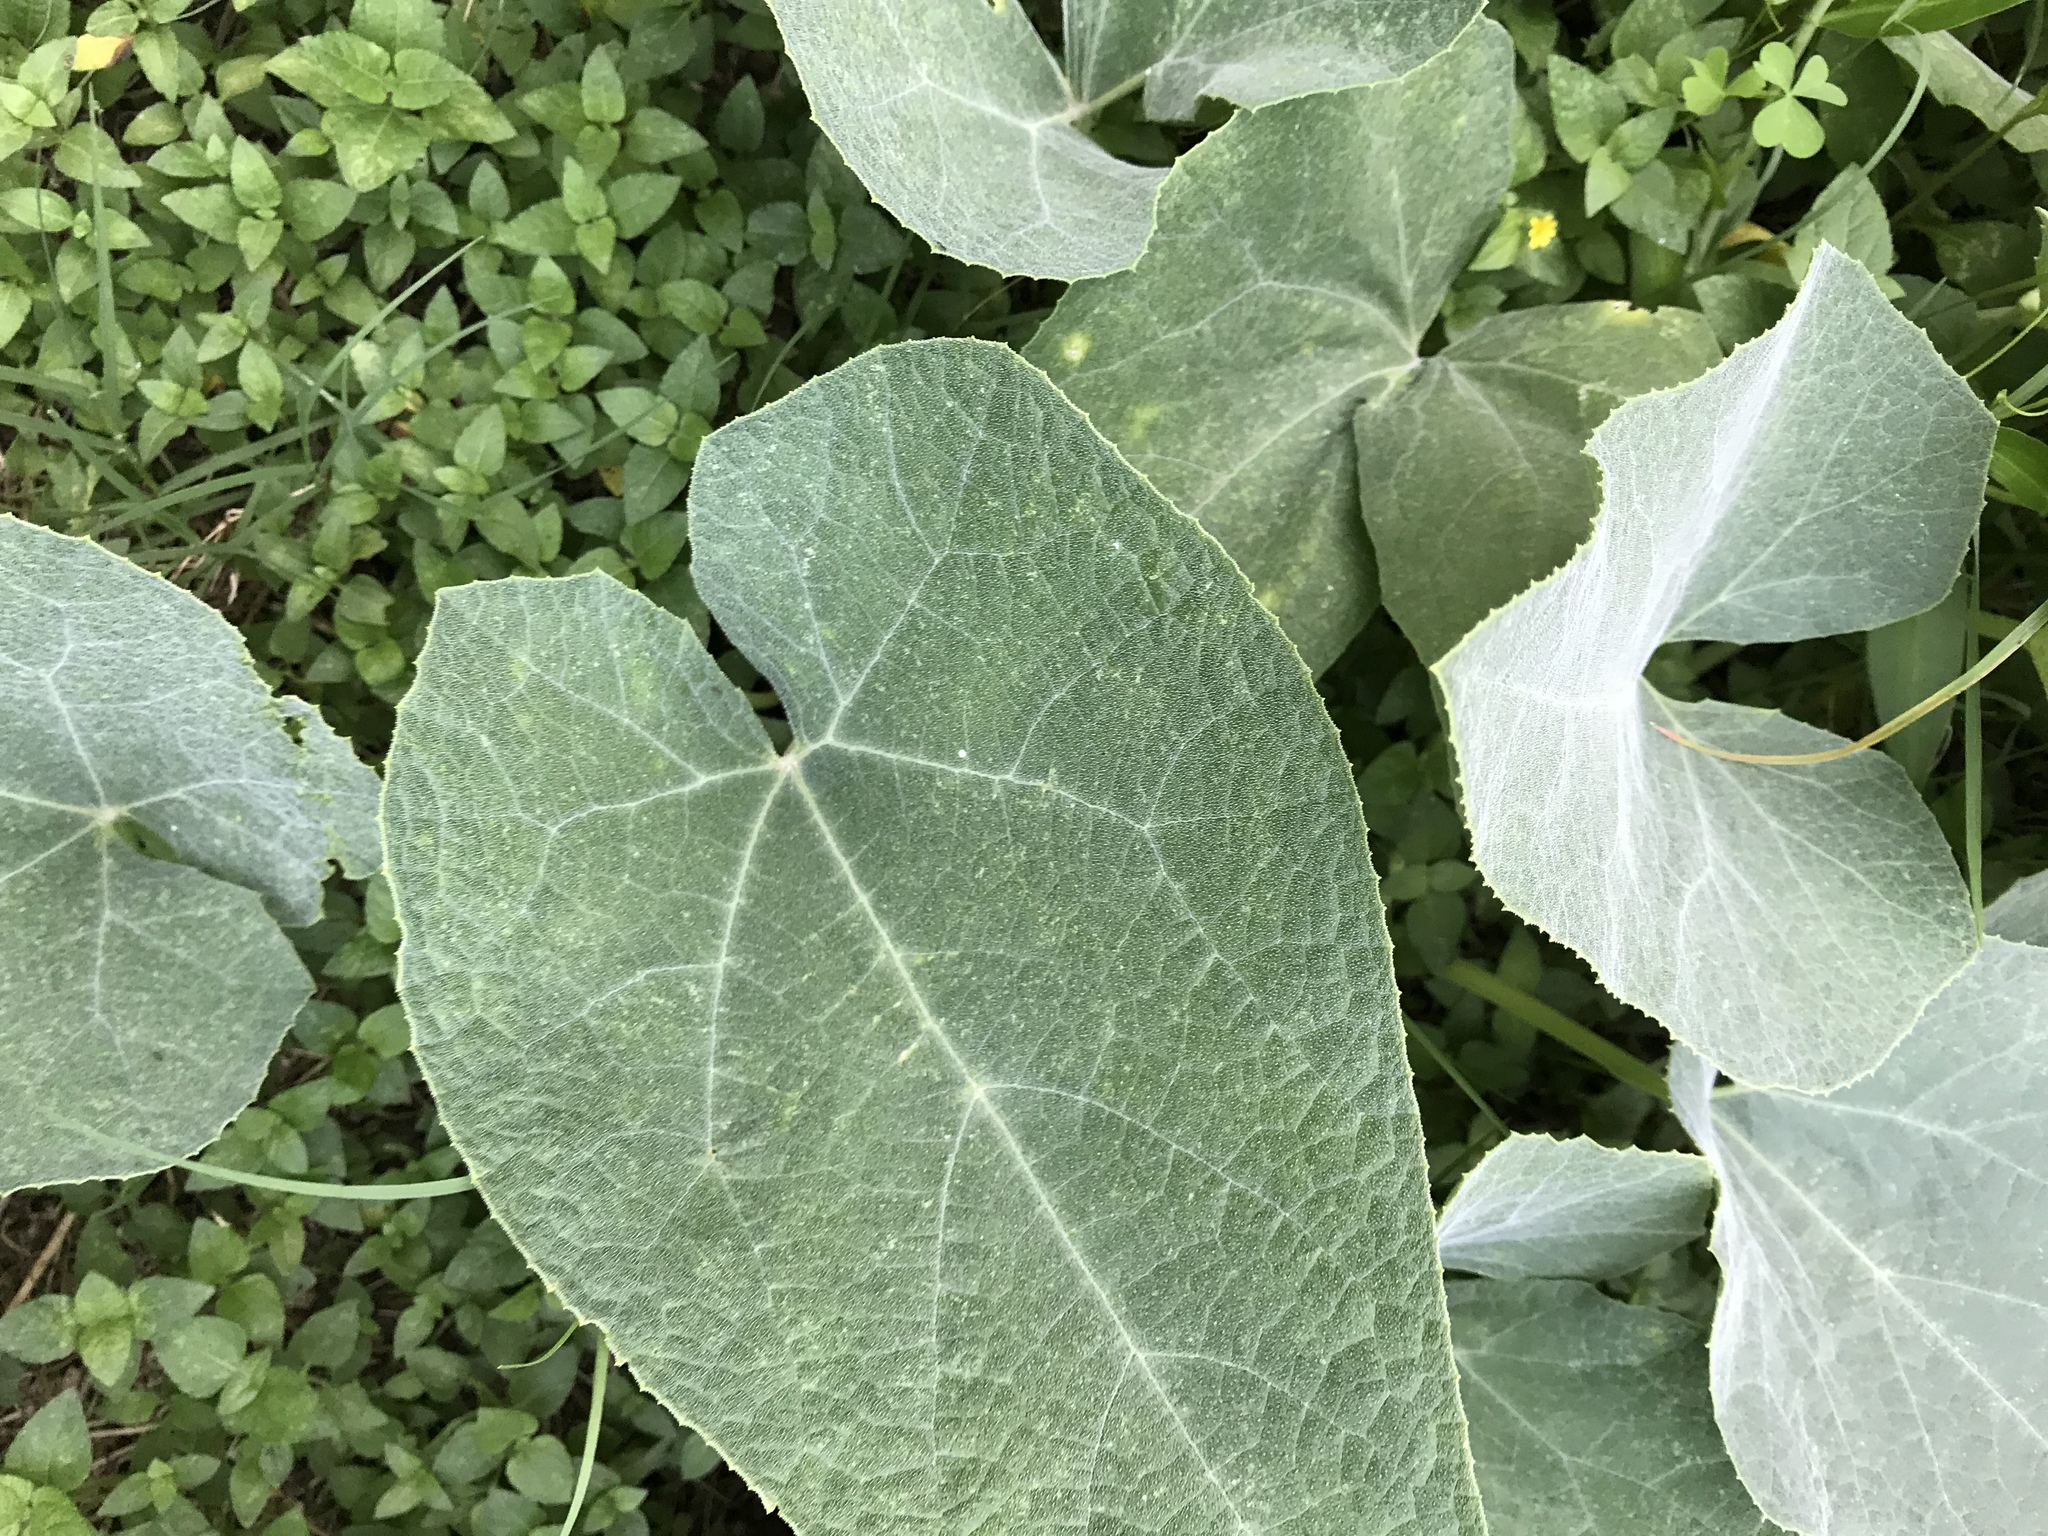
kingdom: Plantae
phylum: Tracheophyta
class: Magnoliopsida
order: Cucurbitales
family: Cucurbitaceae
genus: Cucurbita
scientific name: Cucurbita foetidissima
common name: Buffalo gourd
